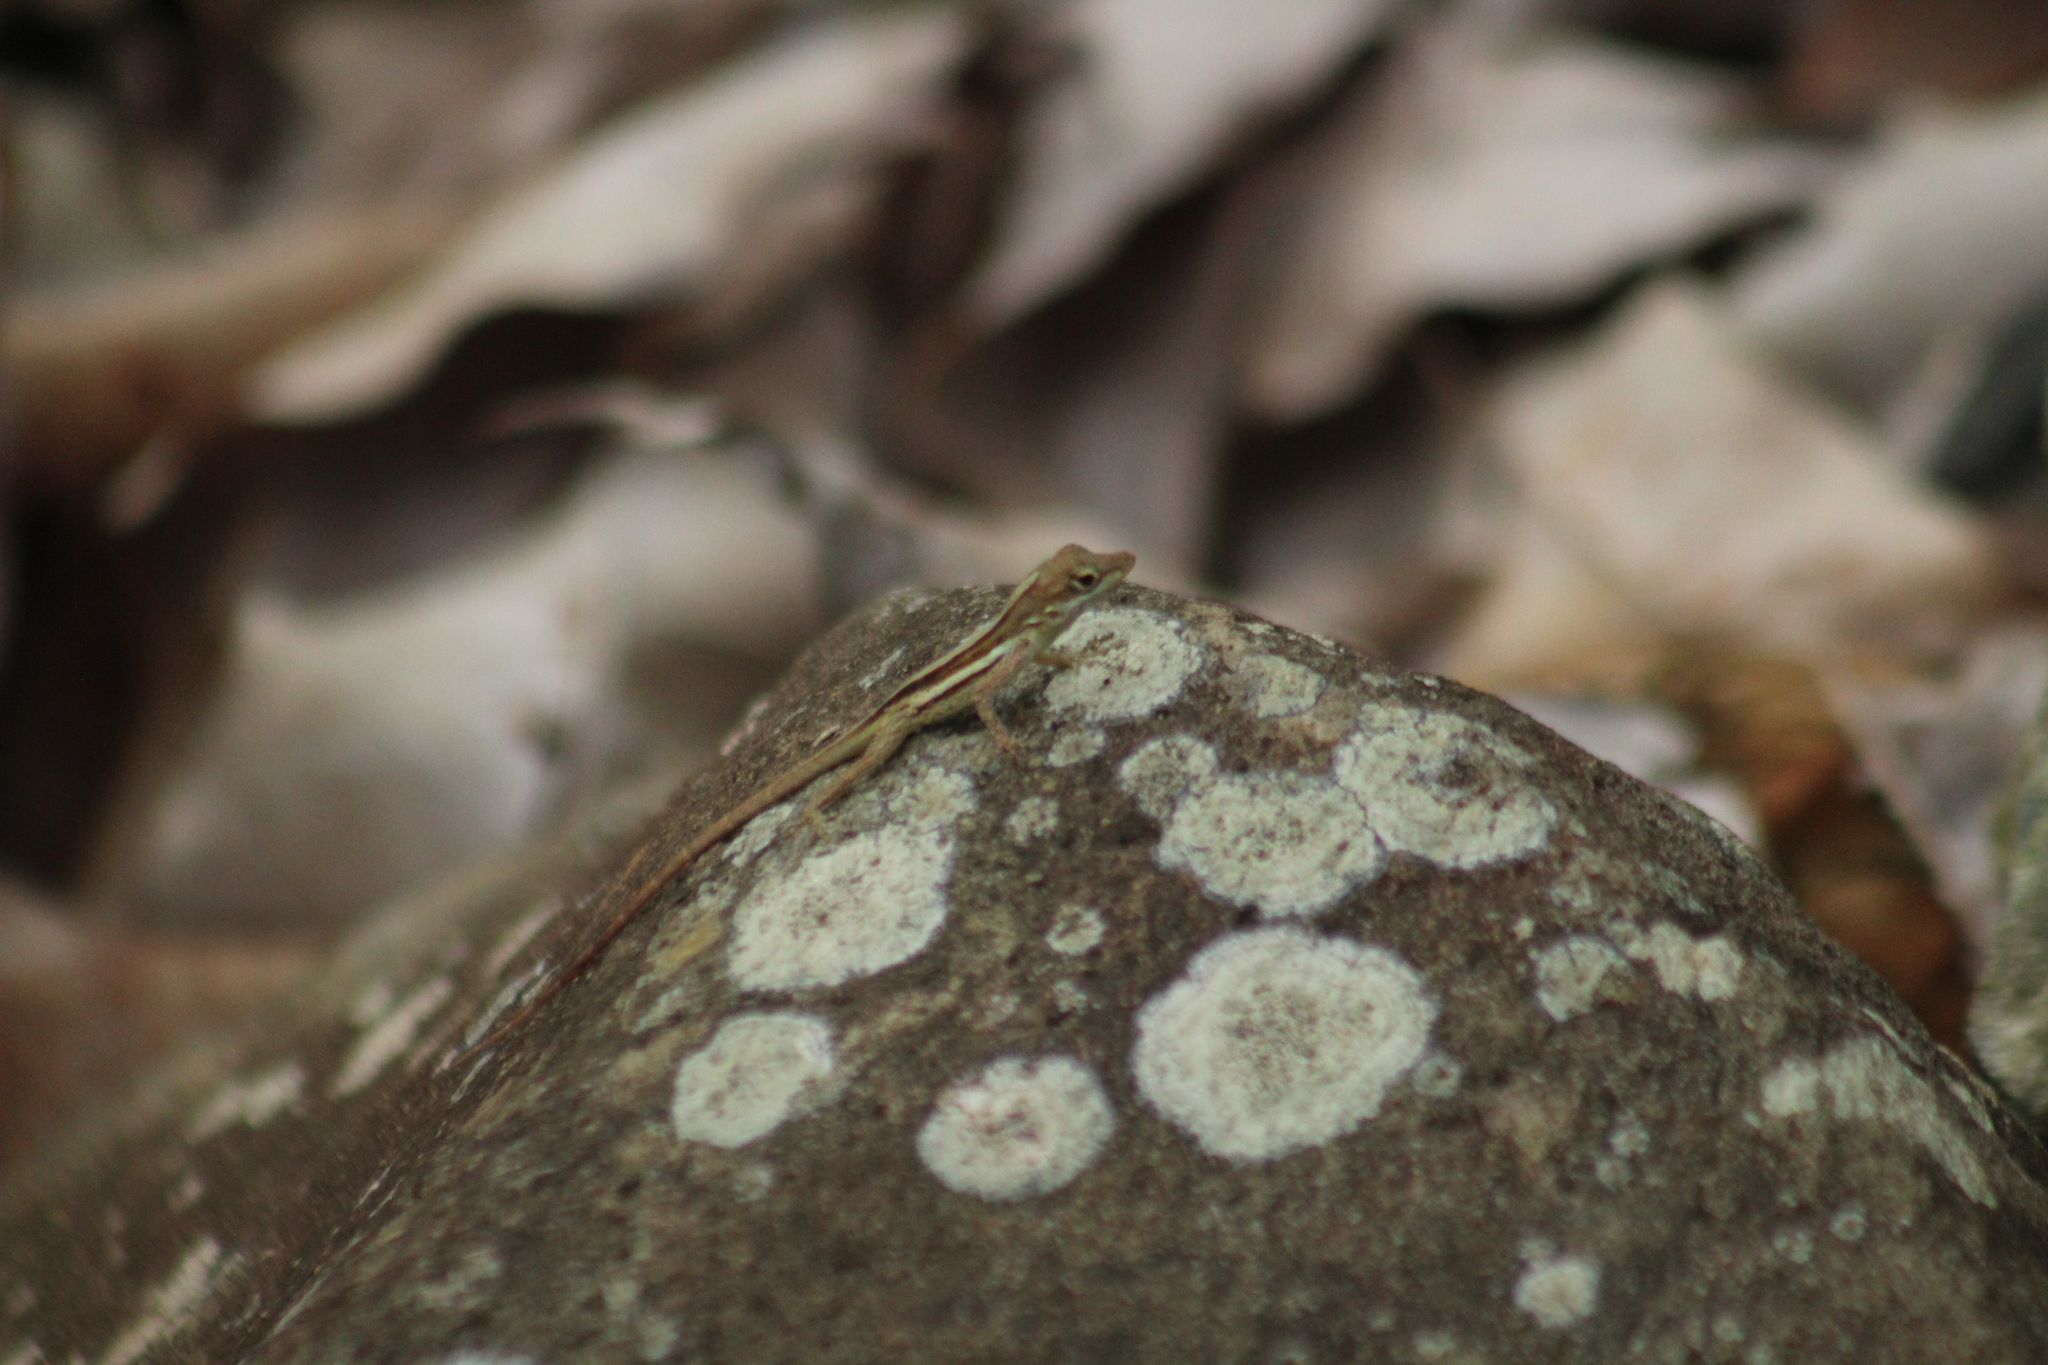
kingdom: Animalia
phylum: Chordata
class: Squamata
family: Dactyloidae
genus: Anolis
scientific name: Anolis gingivinus
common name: Anguilla anole
